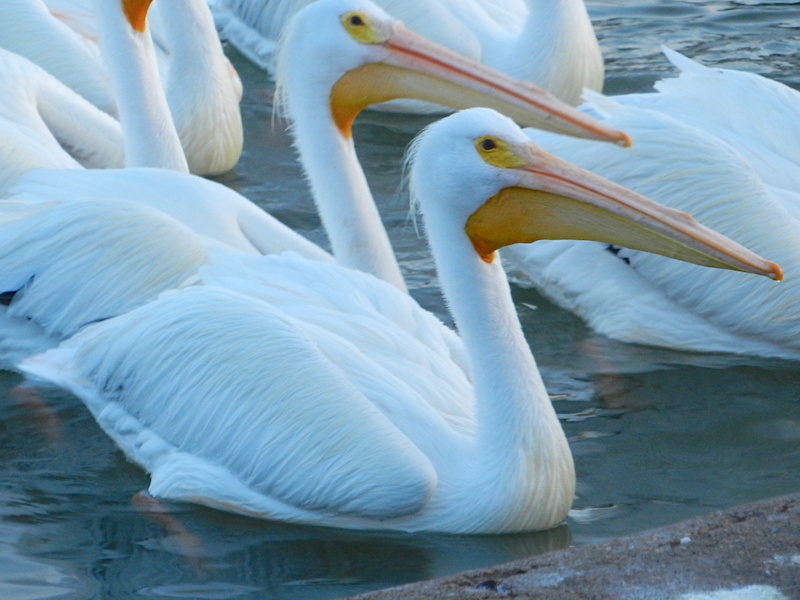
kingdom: Animalia
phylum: Chordata
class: Aves
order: Pelecaniformes
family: Pelecanidae
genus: Pelecanus
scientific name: Pelecanus erythrorhynchos
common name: American white pelican
